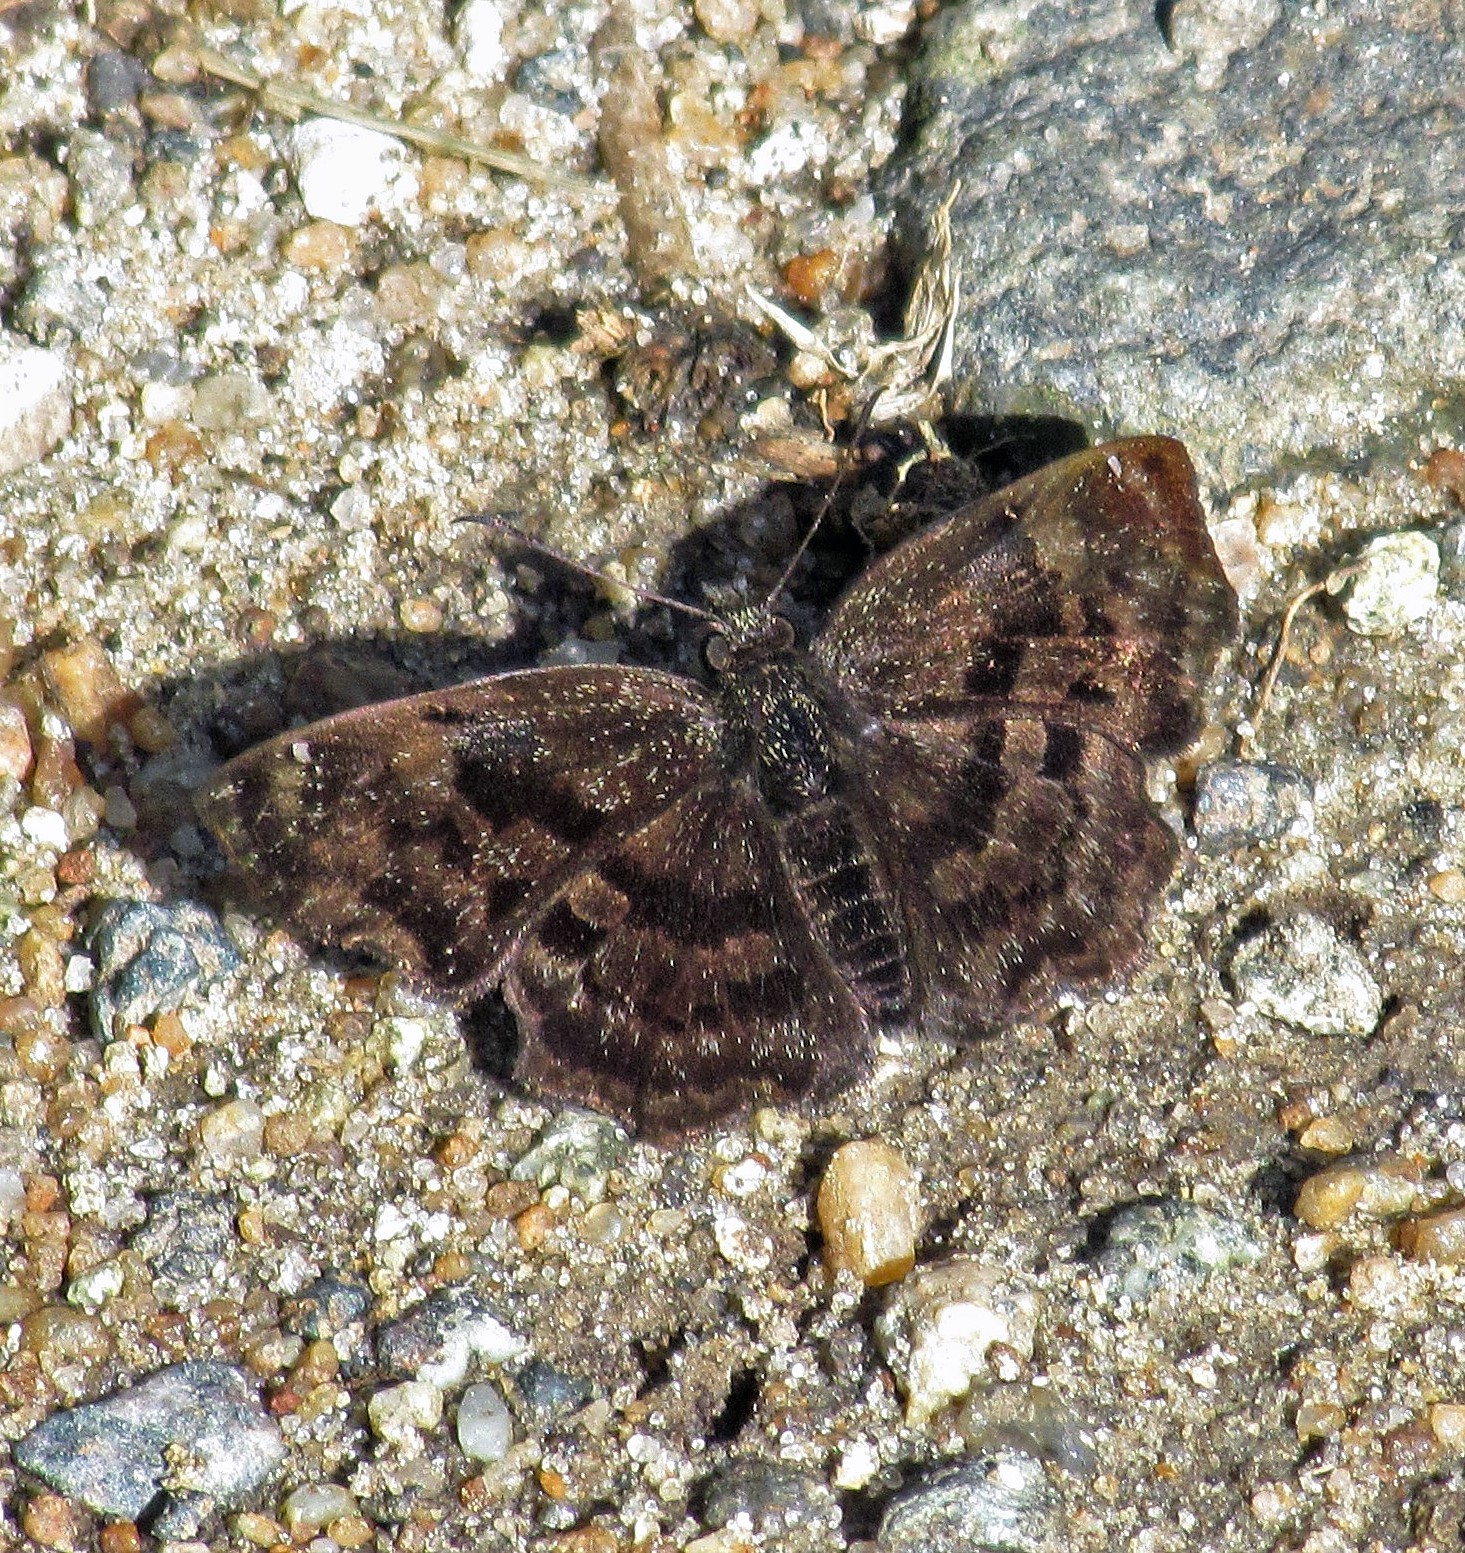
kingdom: Animalia
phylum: Arthropoda
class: Insecta
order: Lepidoptera
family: Hesperiidae
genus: Antigonus
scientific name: Antigonus liborius
